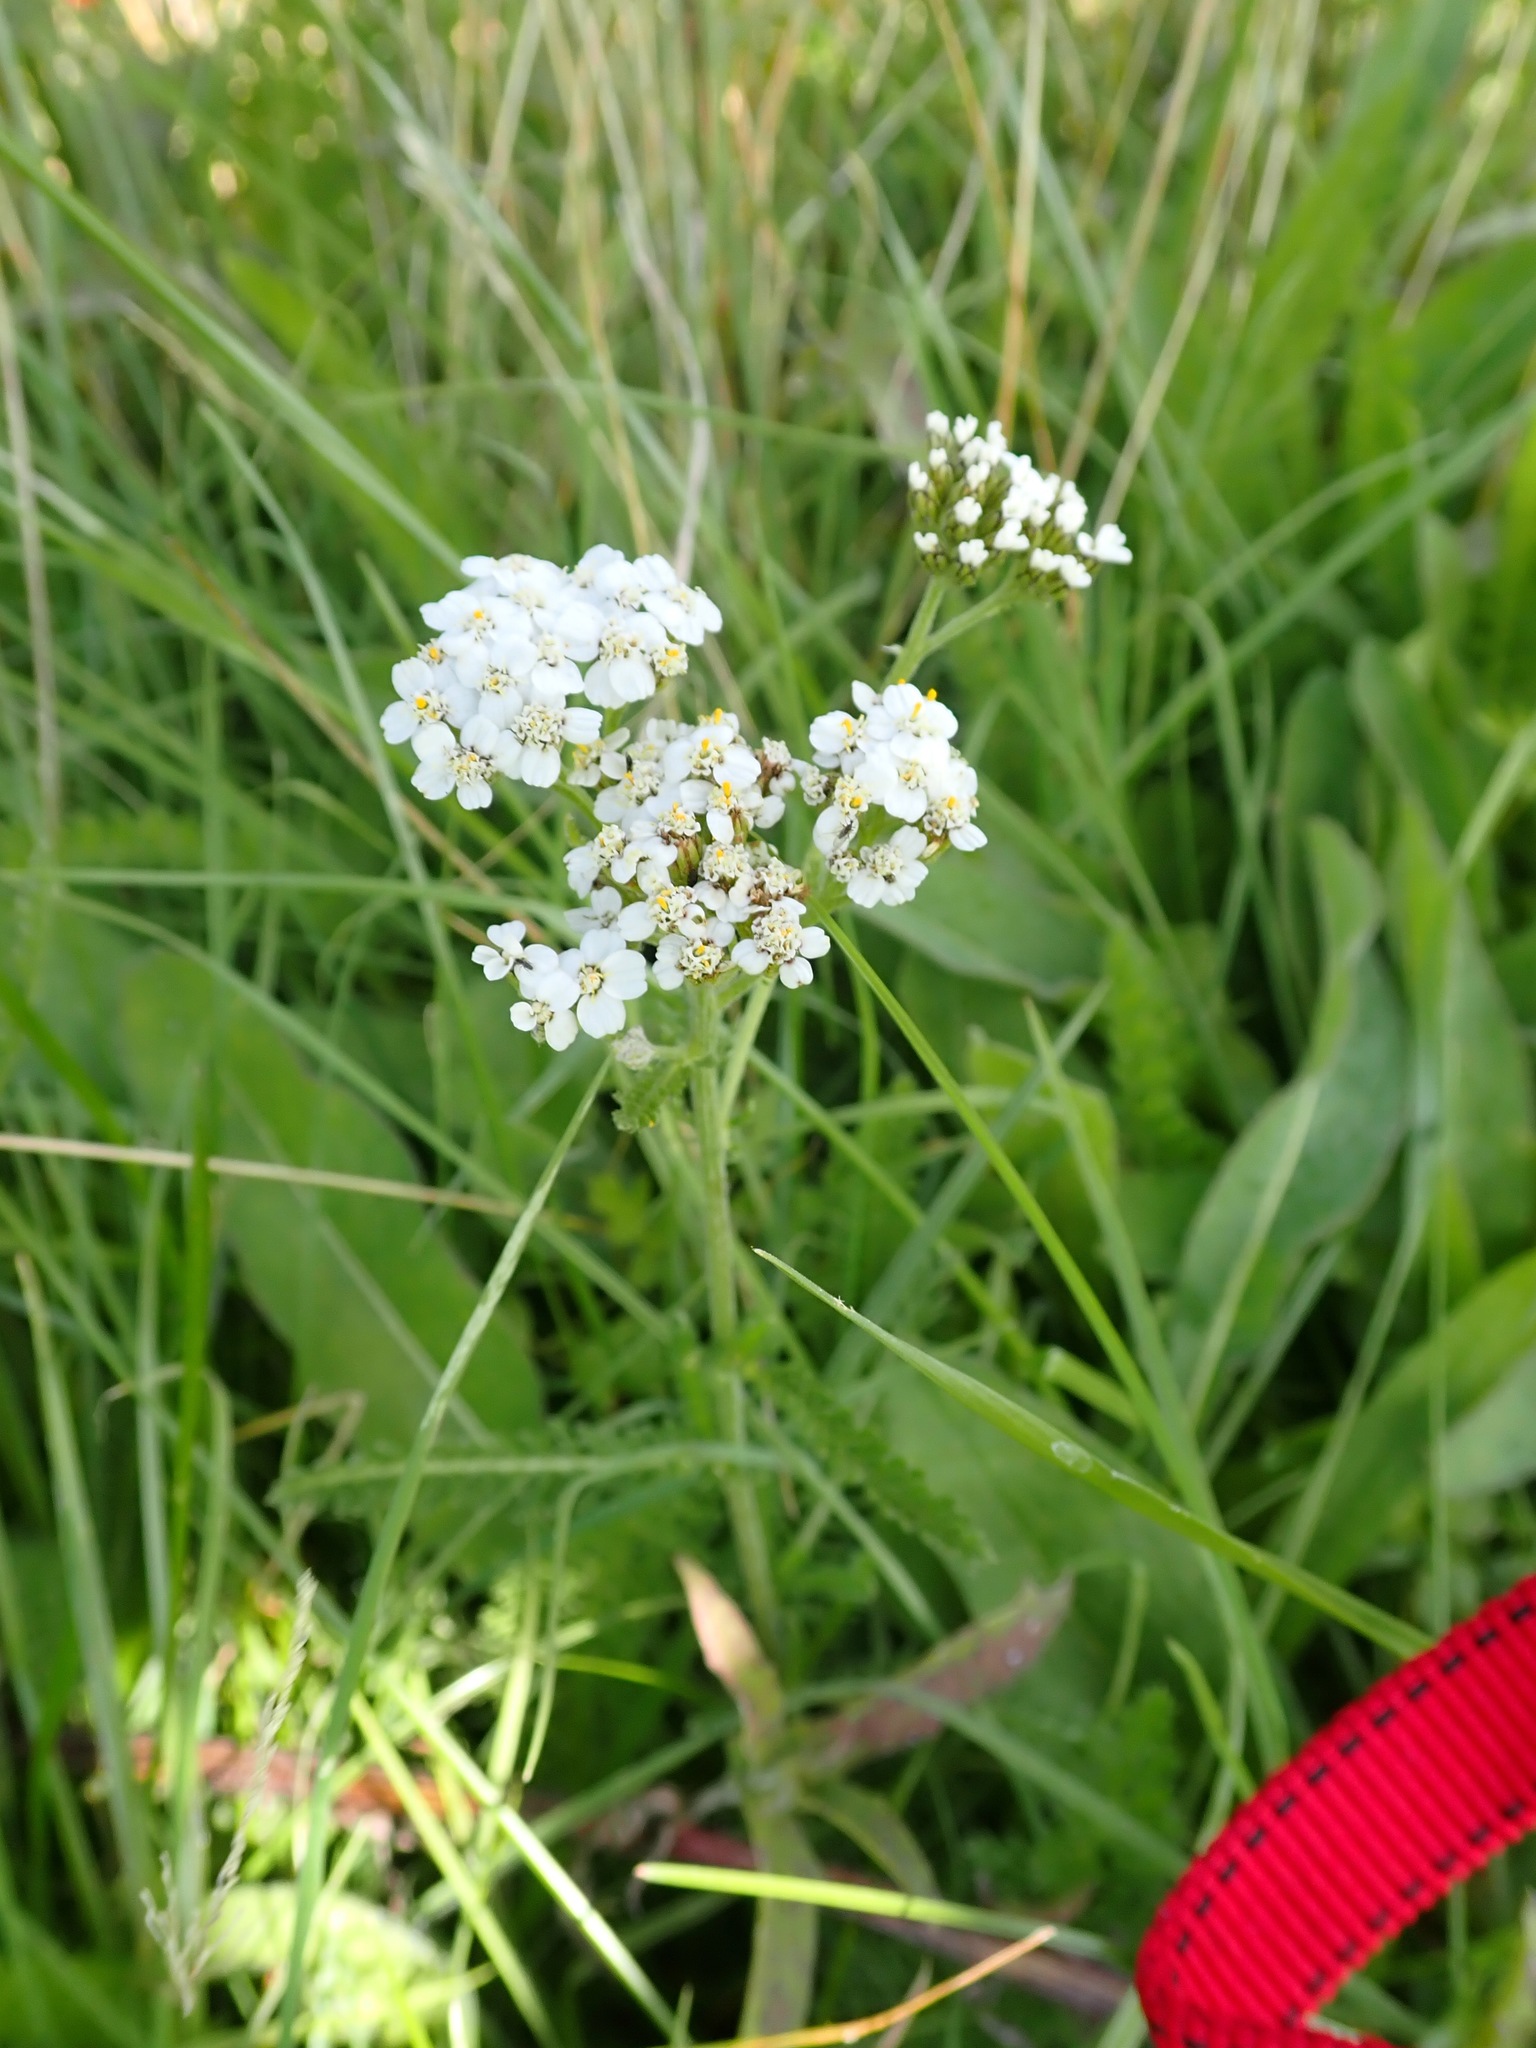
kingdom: Plantae
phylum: Tracheophyta
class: Magnoliopsida
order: Asterales
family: Asteraceae
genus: Achillea
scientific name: Achillea millefolium
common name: Yarrow
